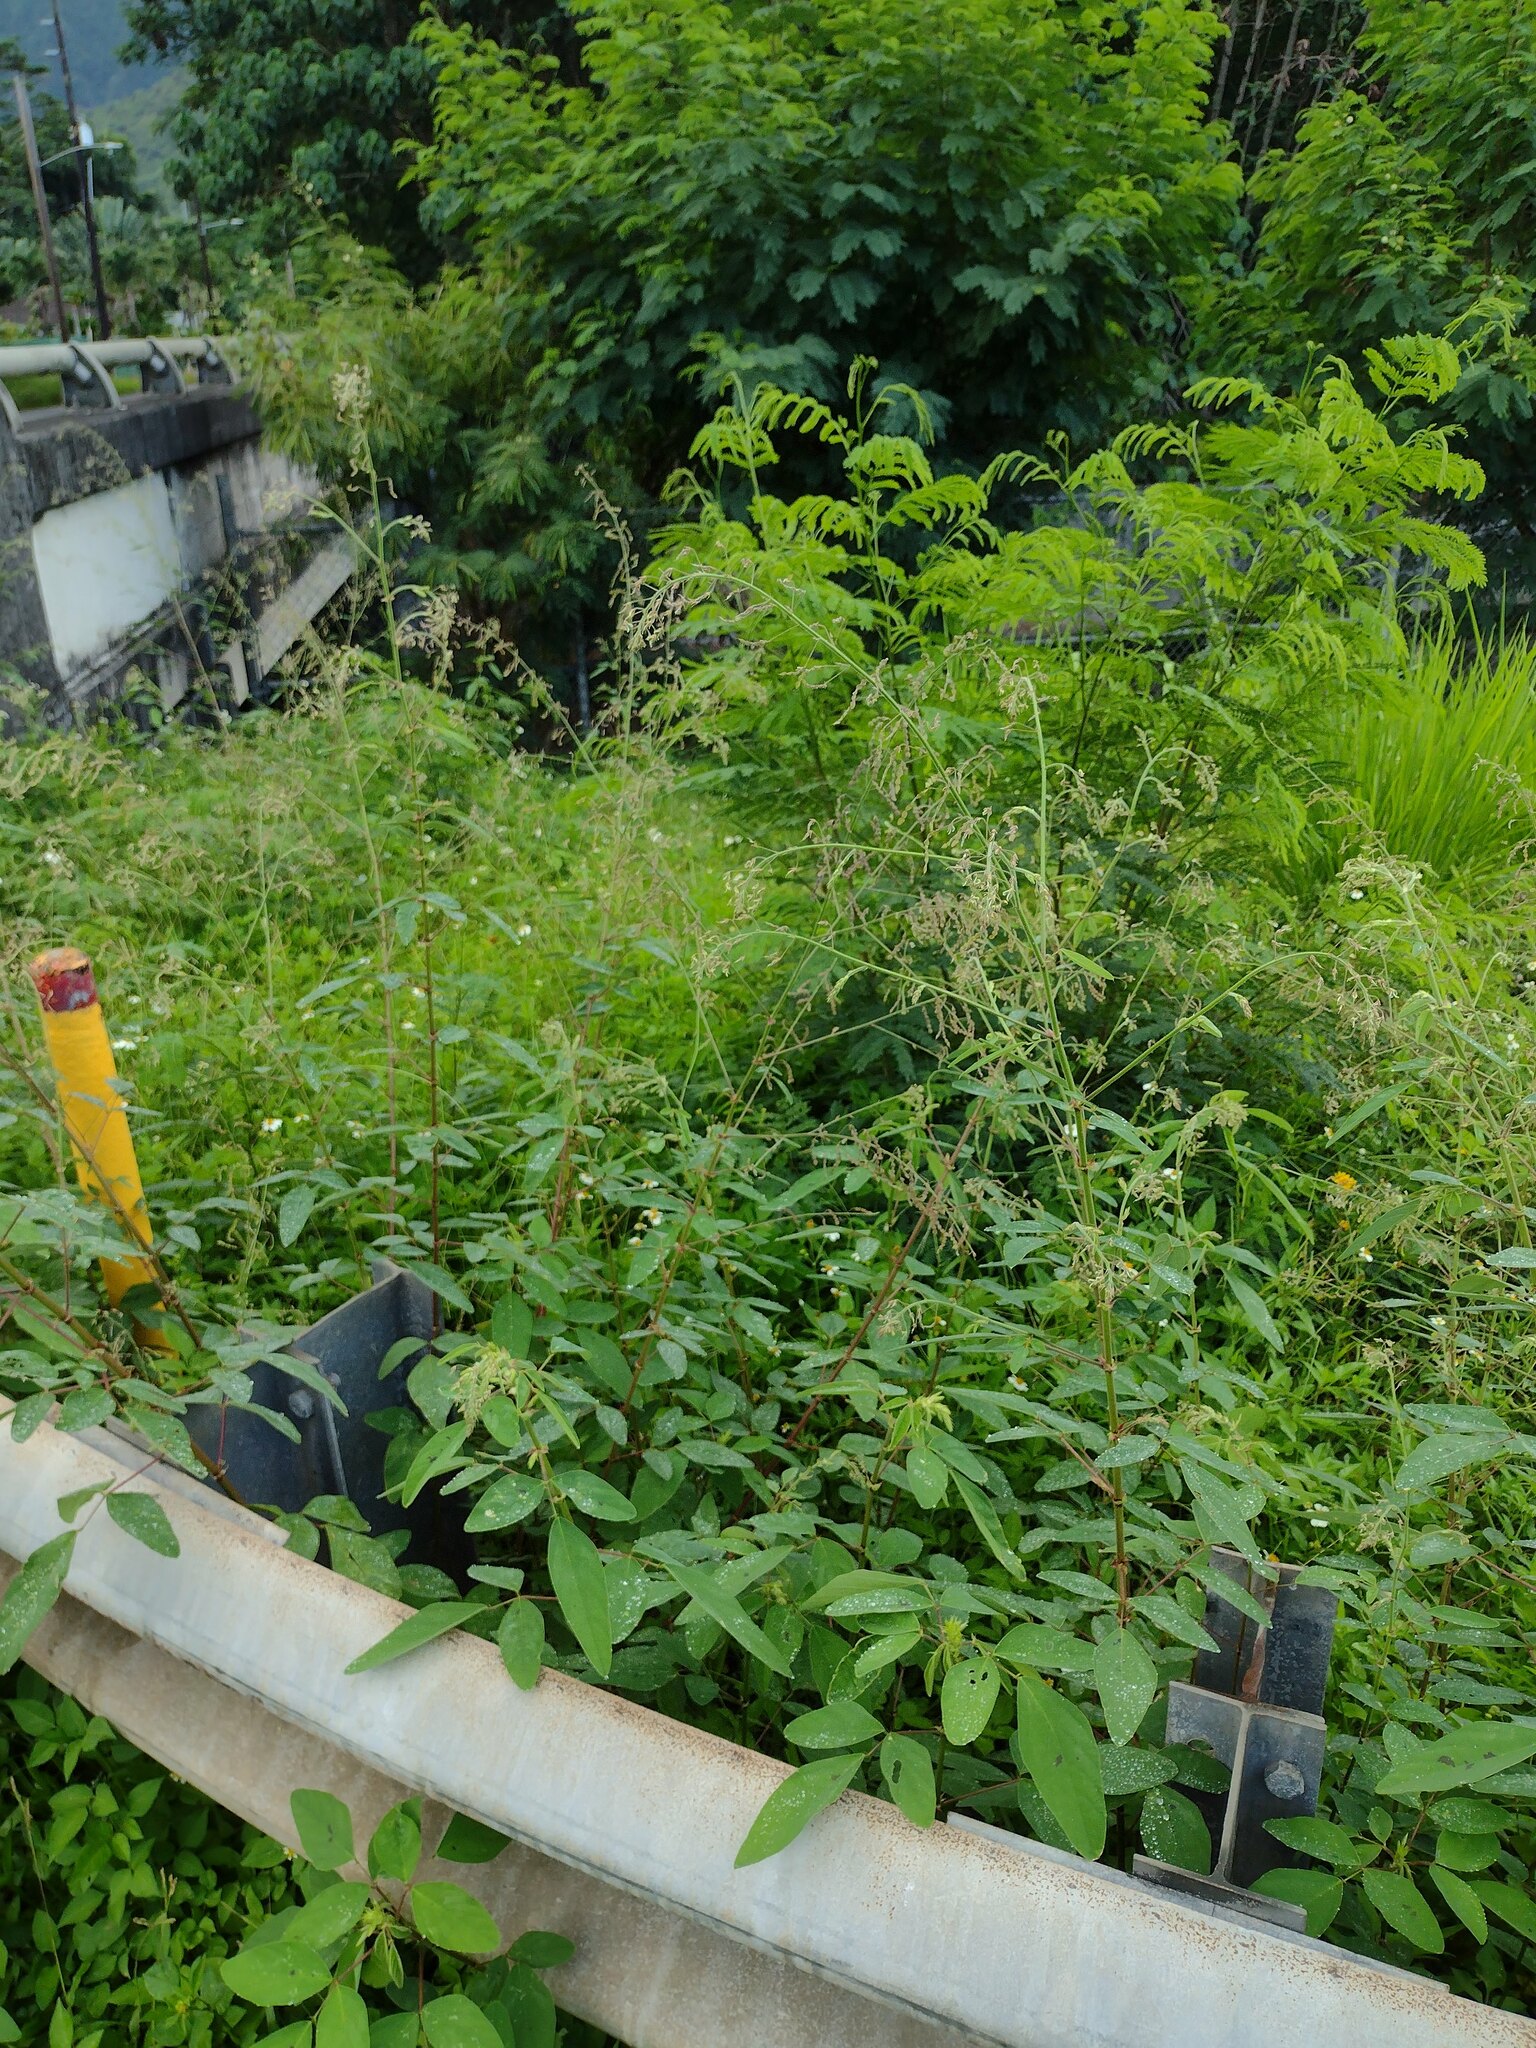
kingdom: Plantae
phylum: Tracheophyta
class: Magnoliopsida
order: Fabales
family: Fabaceae
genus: Desmodium
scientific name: Desmodium tortuosum
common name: Dixie ticktrefoil
